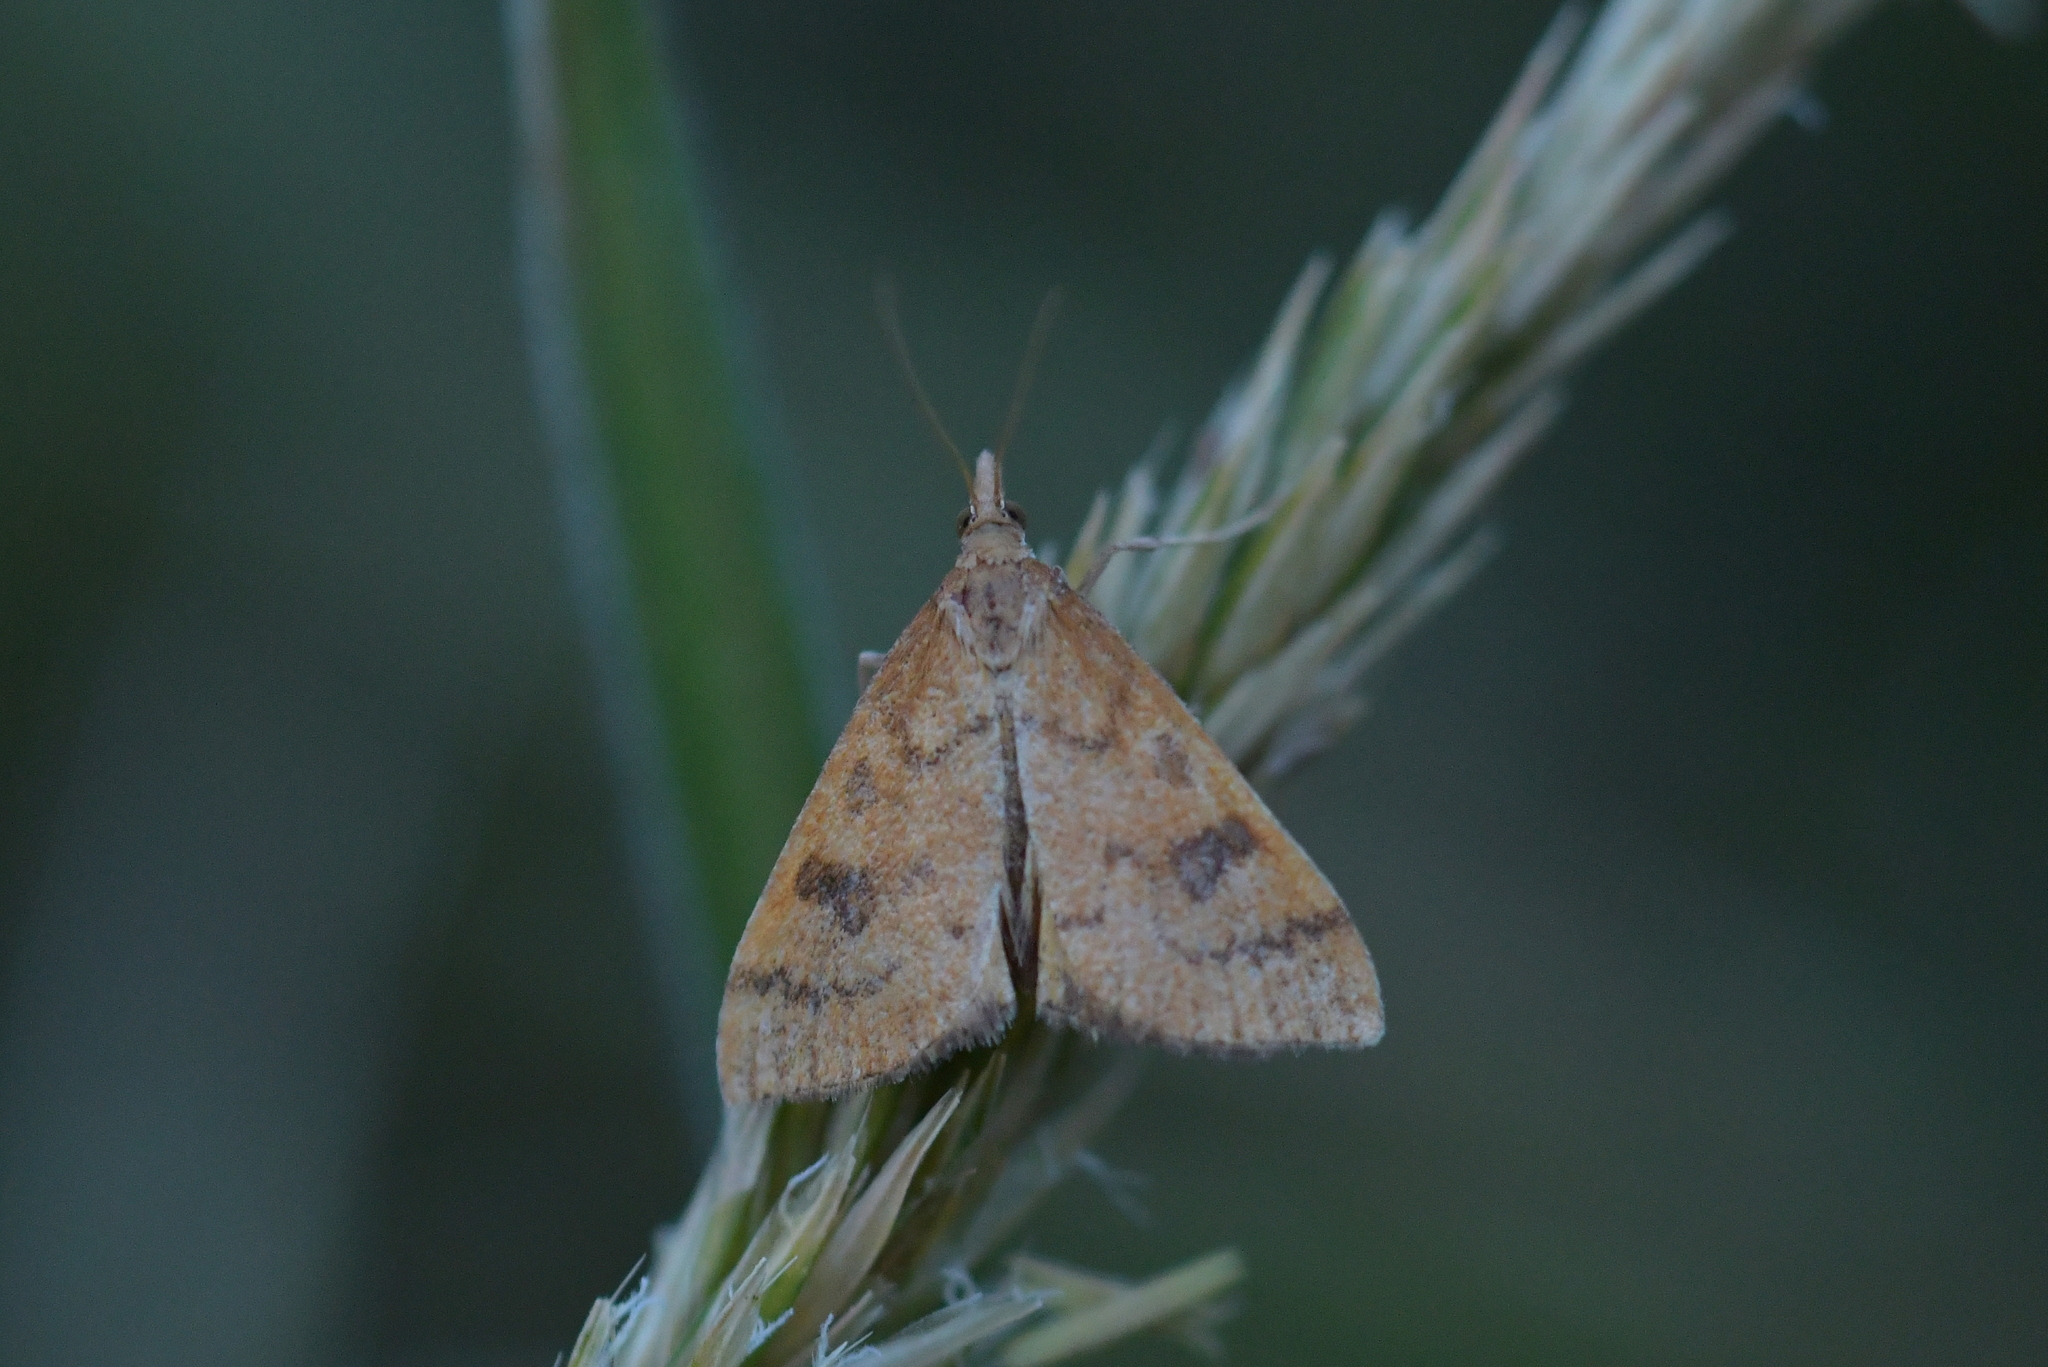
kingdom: Animalia
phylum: Arthropoda
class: Insecta
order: Lepidoptera
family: Crambidae
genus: Udea
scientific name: Udea Mnesictena flavidalis
